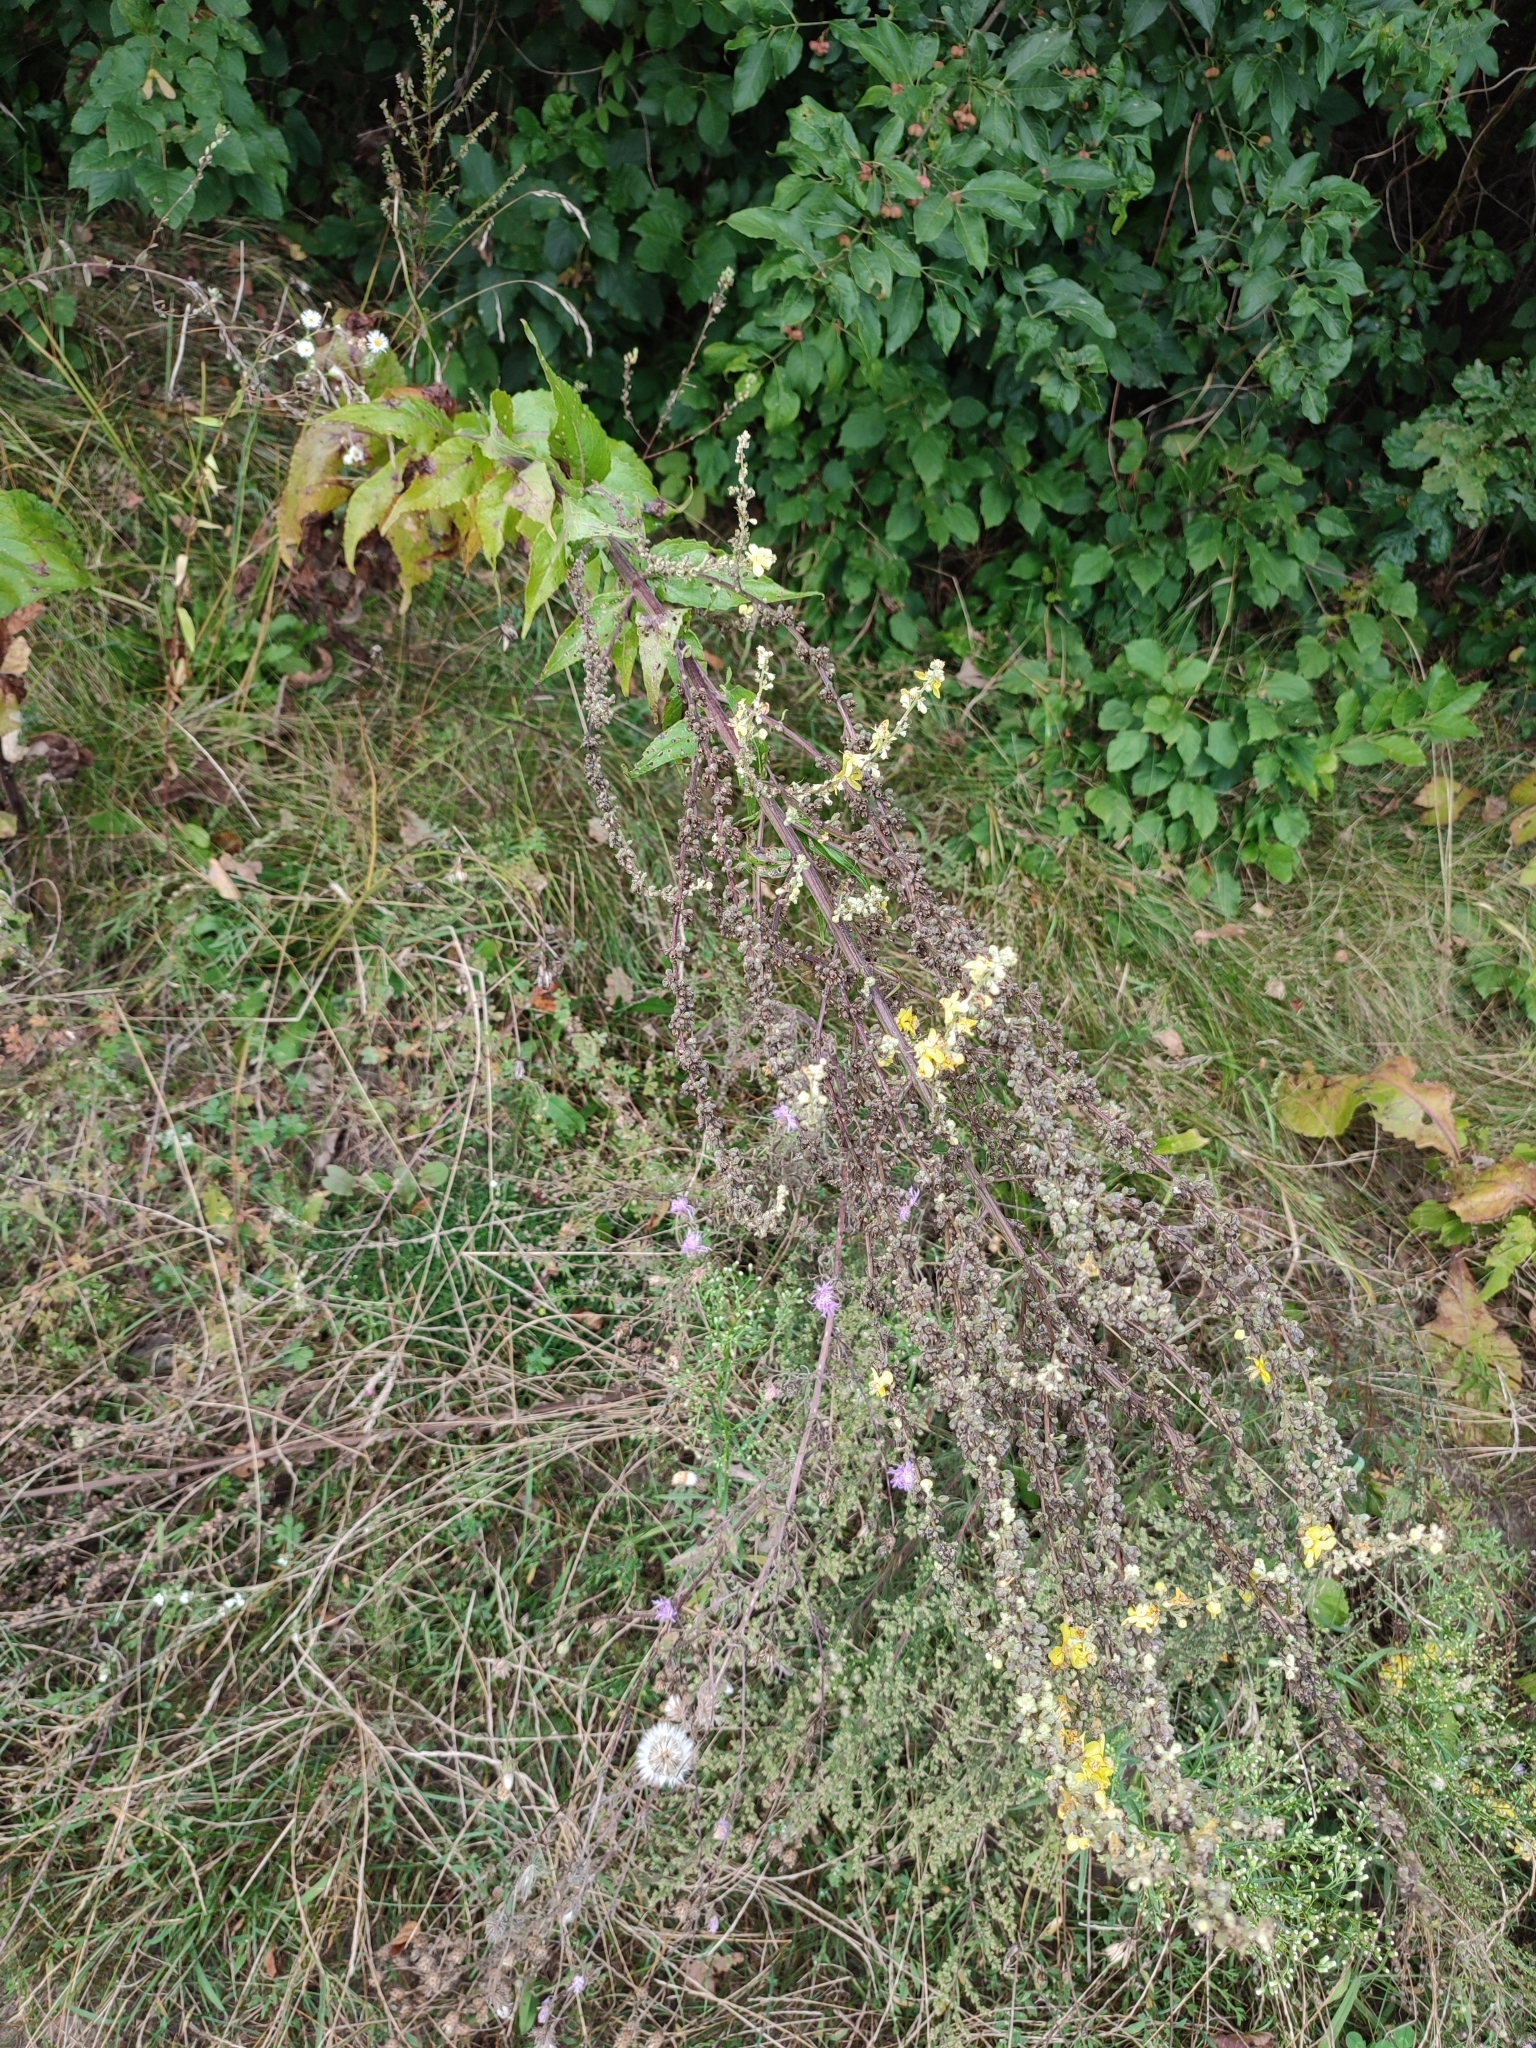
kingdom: Plantae
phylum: Tracheophyta
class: Magnoliopsida
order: Lamiales
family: Scrophulariaceae
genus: Verbascum
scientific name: Verbascum lychnitis
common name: White mullein
